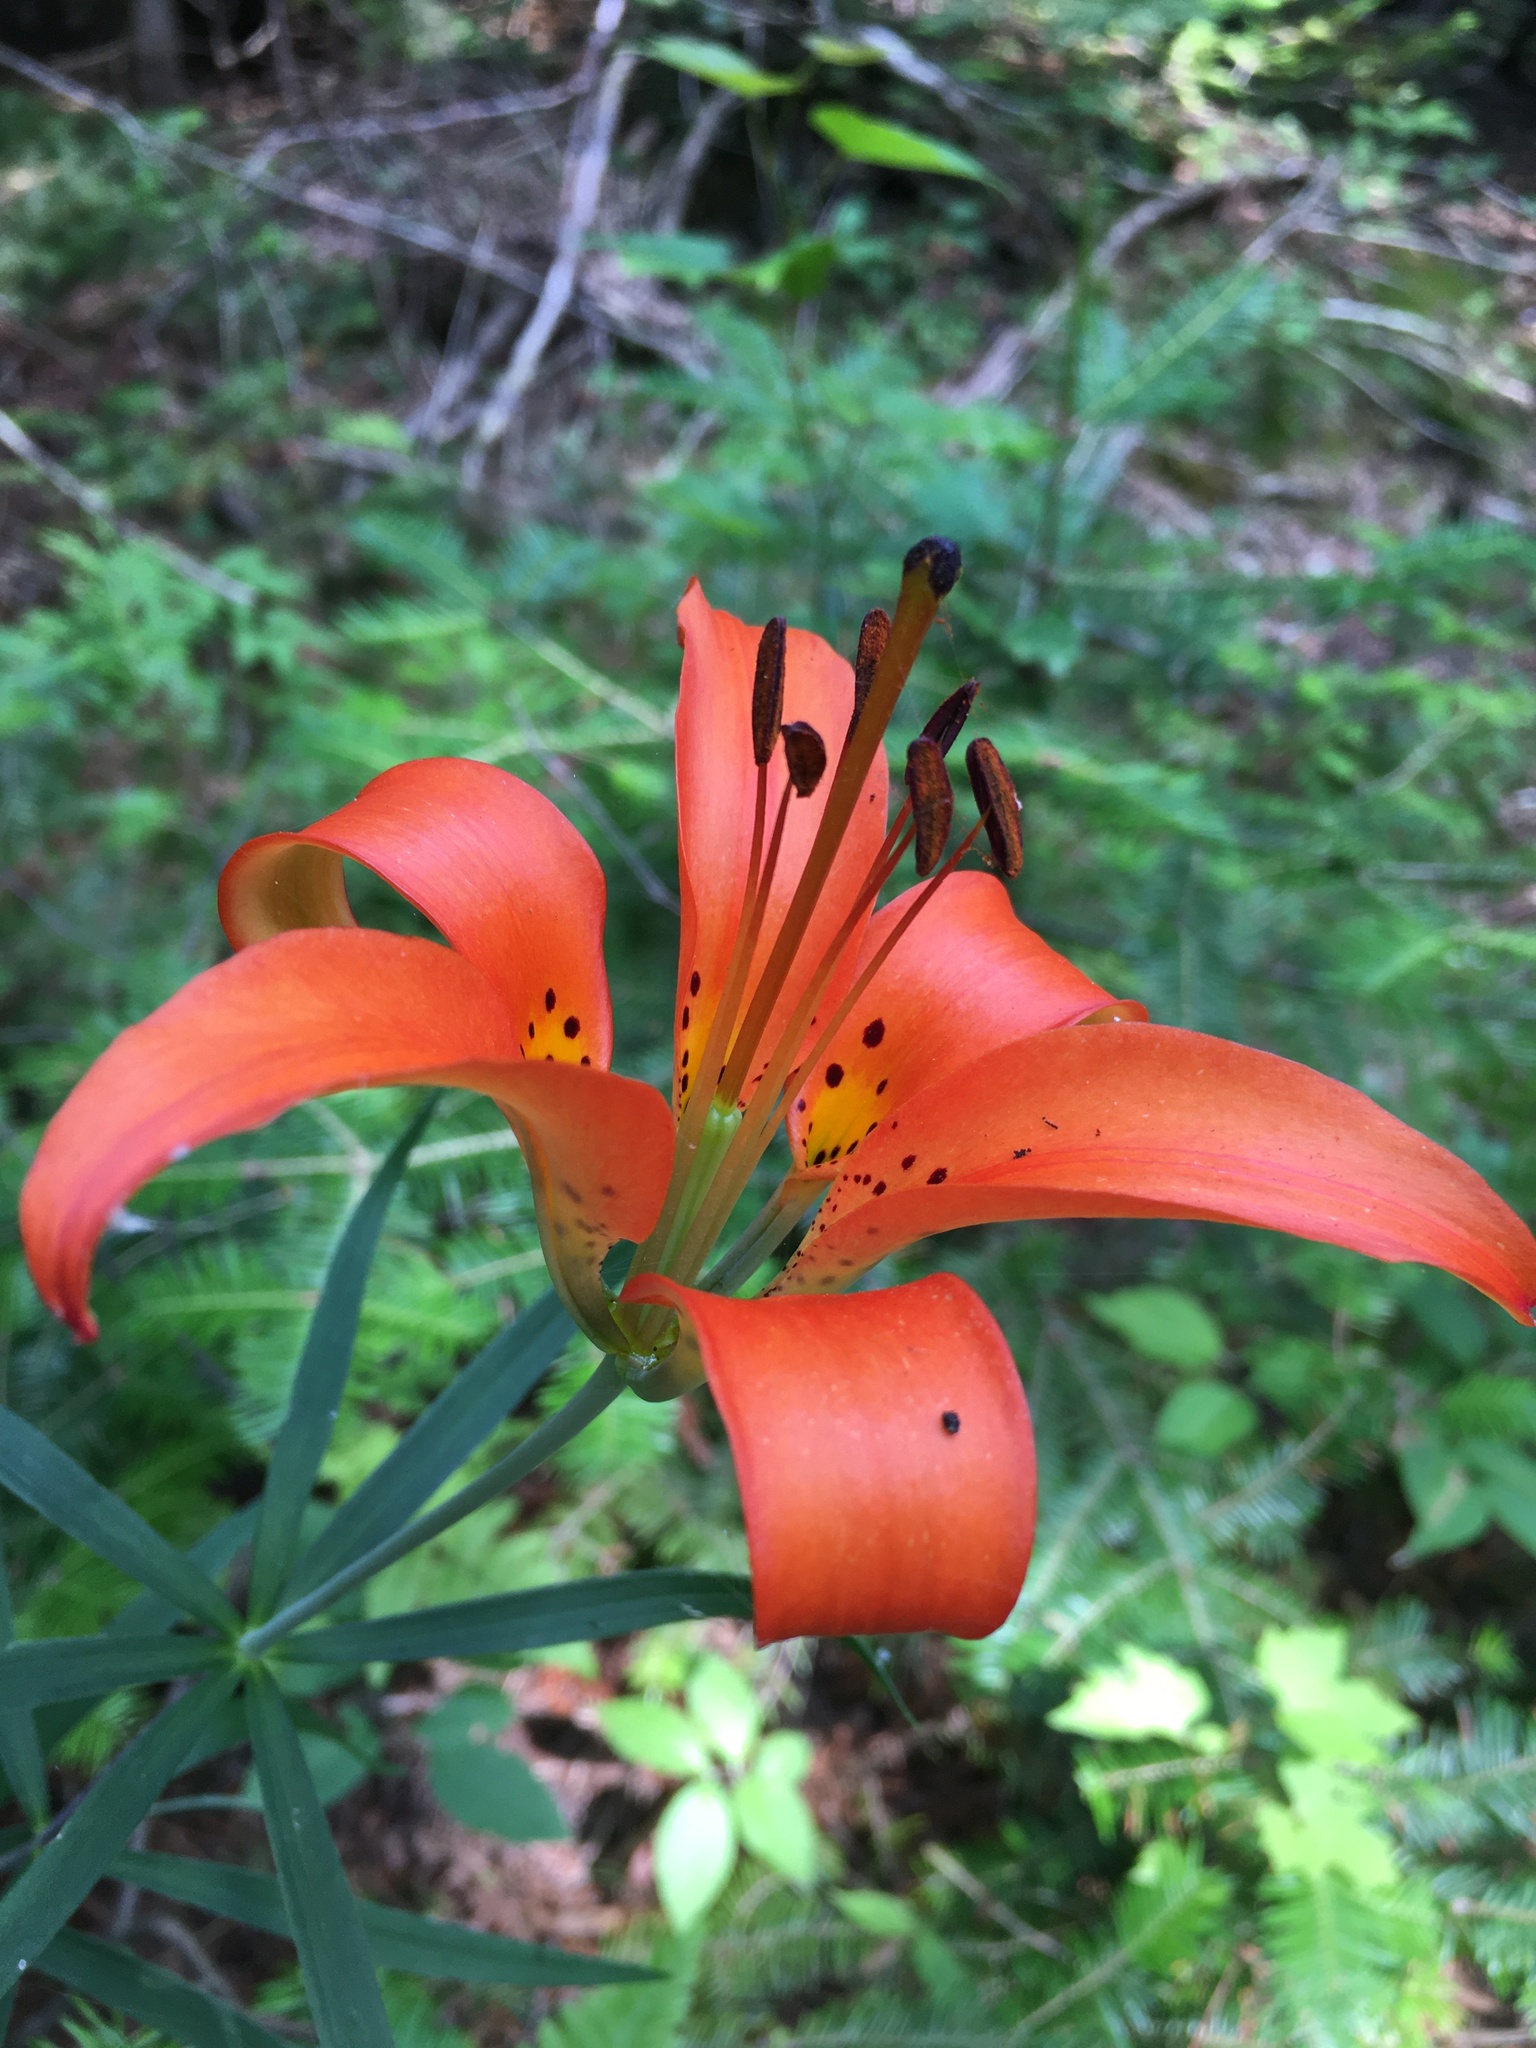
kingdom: Plantae
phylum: Tracheophyta
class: Liliopsida
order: Liliales
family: Liliaceae
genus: Lilium
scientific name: Lilium philadelphicum
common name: Red lily
